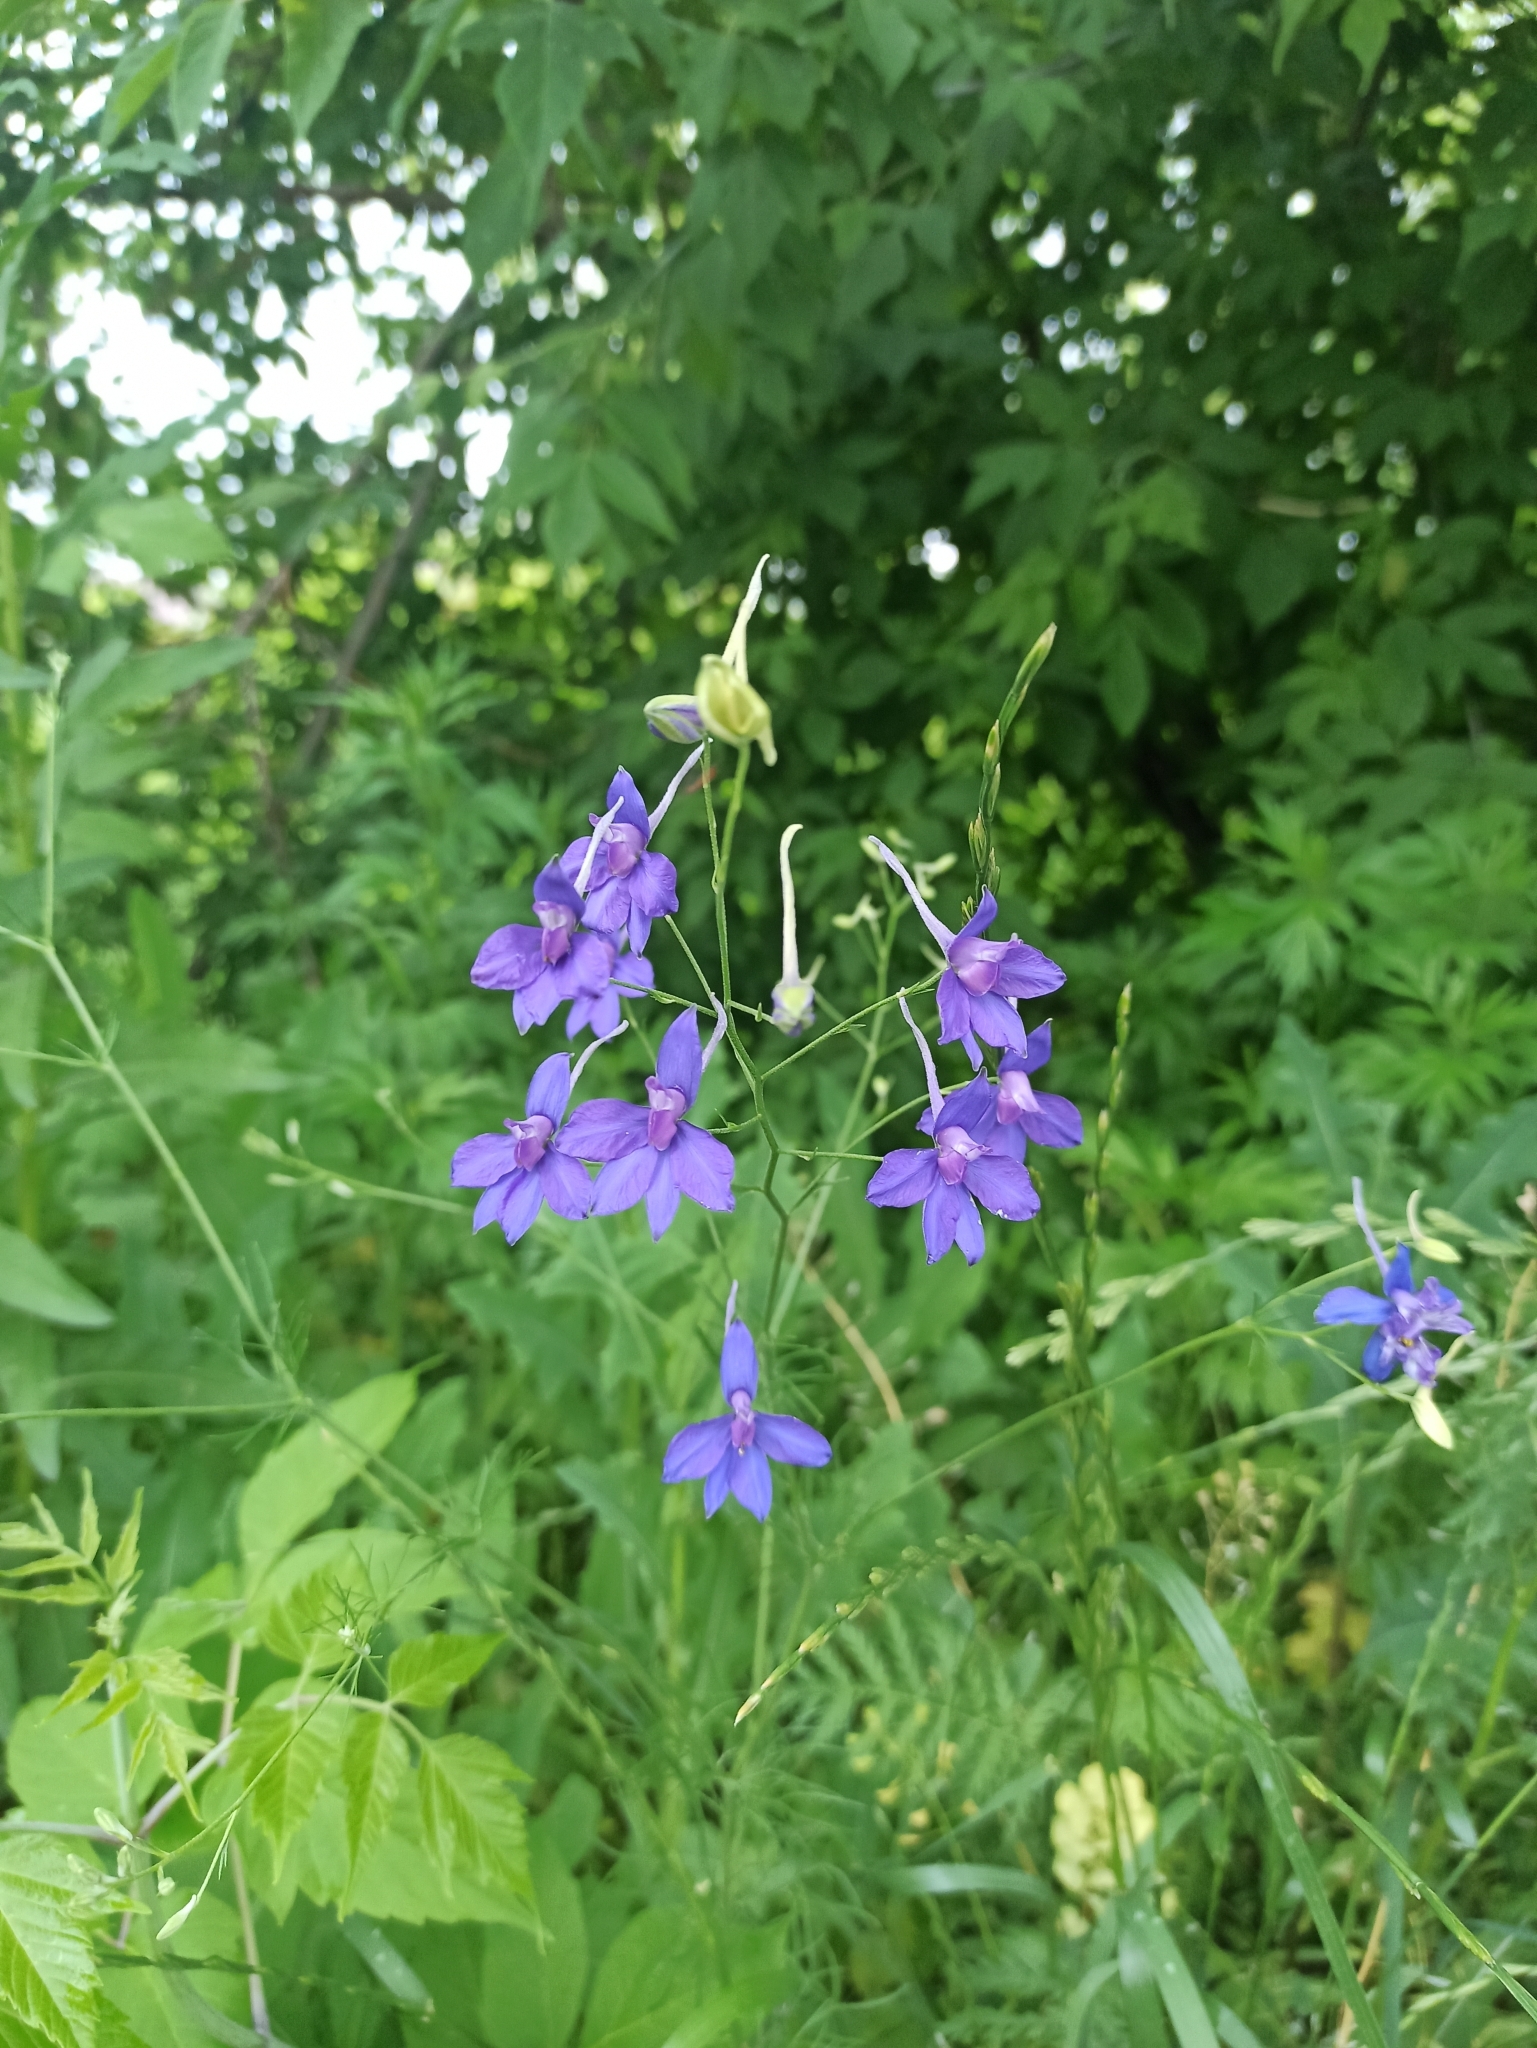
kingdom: Plantae
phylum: Tracheophyta
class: Magnoliopsida
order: Ranunculales
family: Ranunculaceae
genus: Delphinium
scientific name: Delphinium consolida
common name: Branching larkspur
